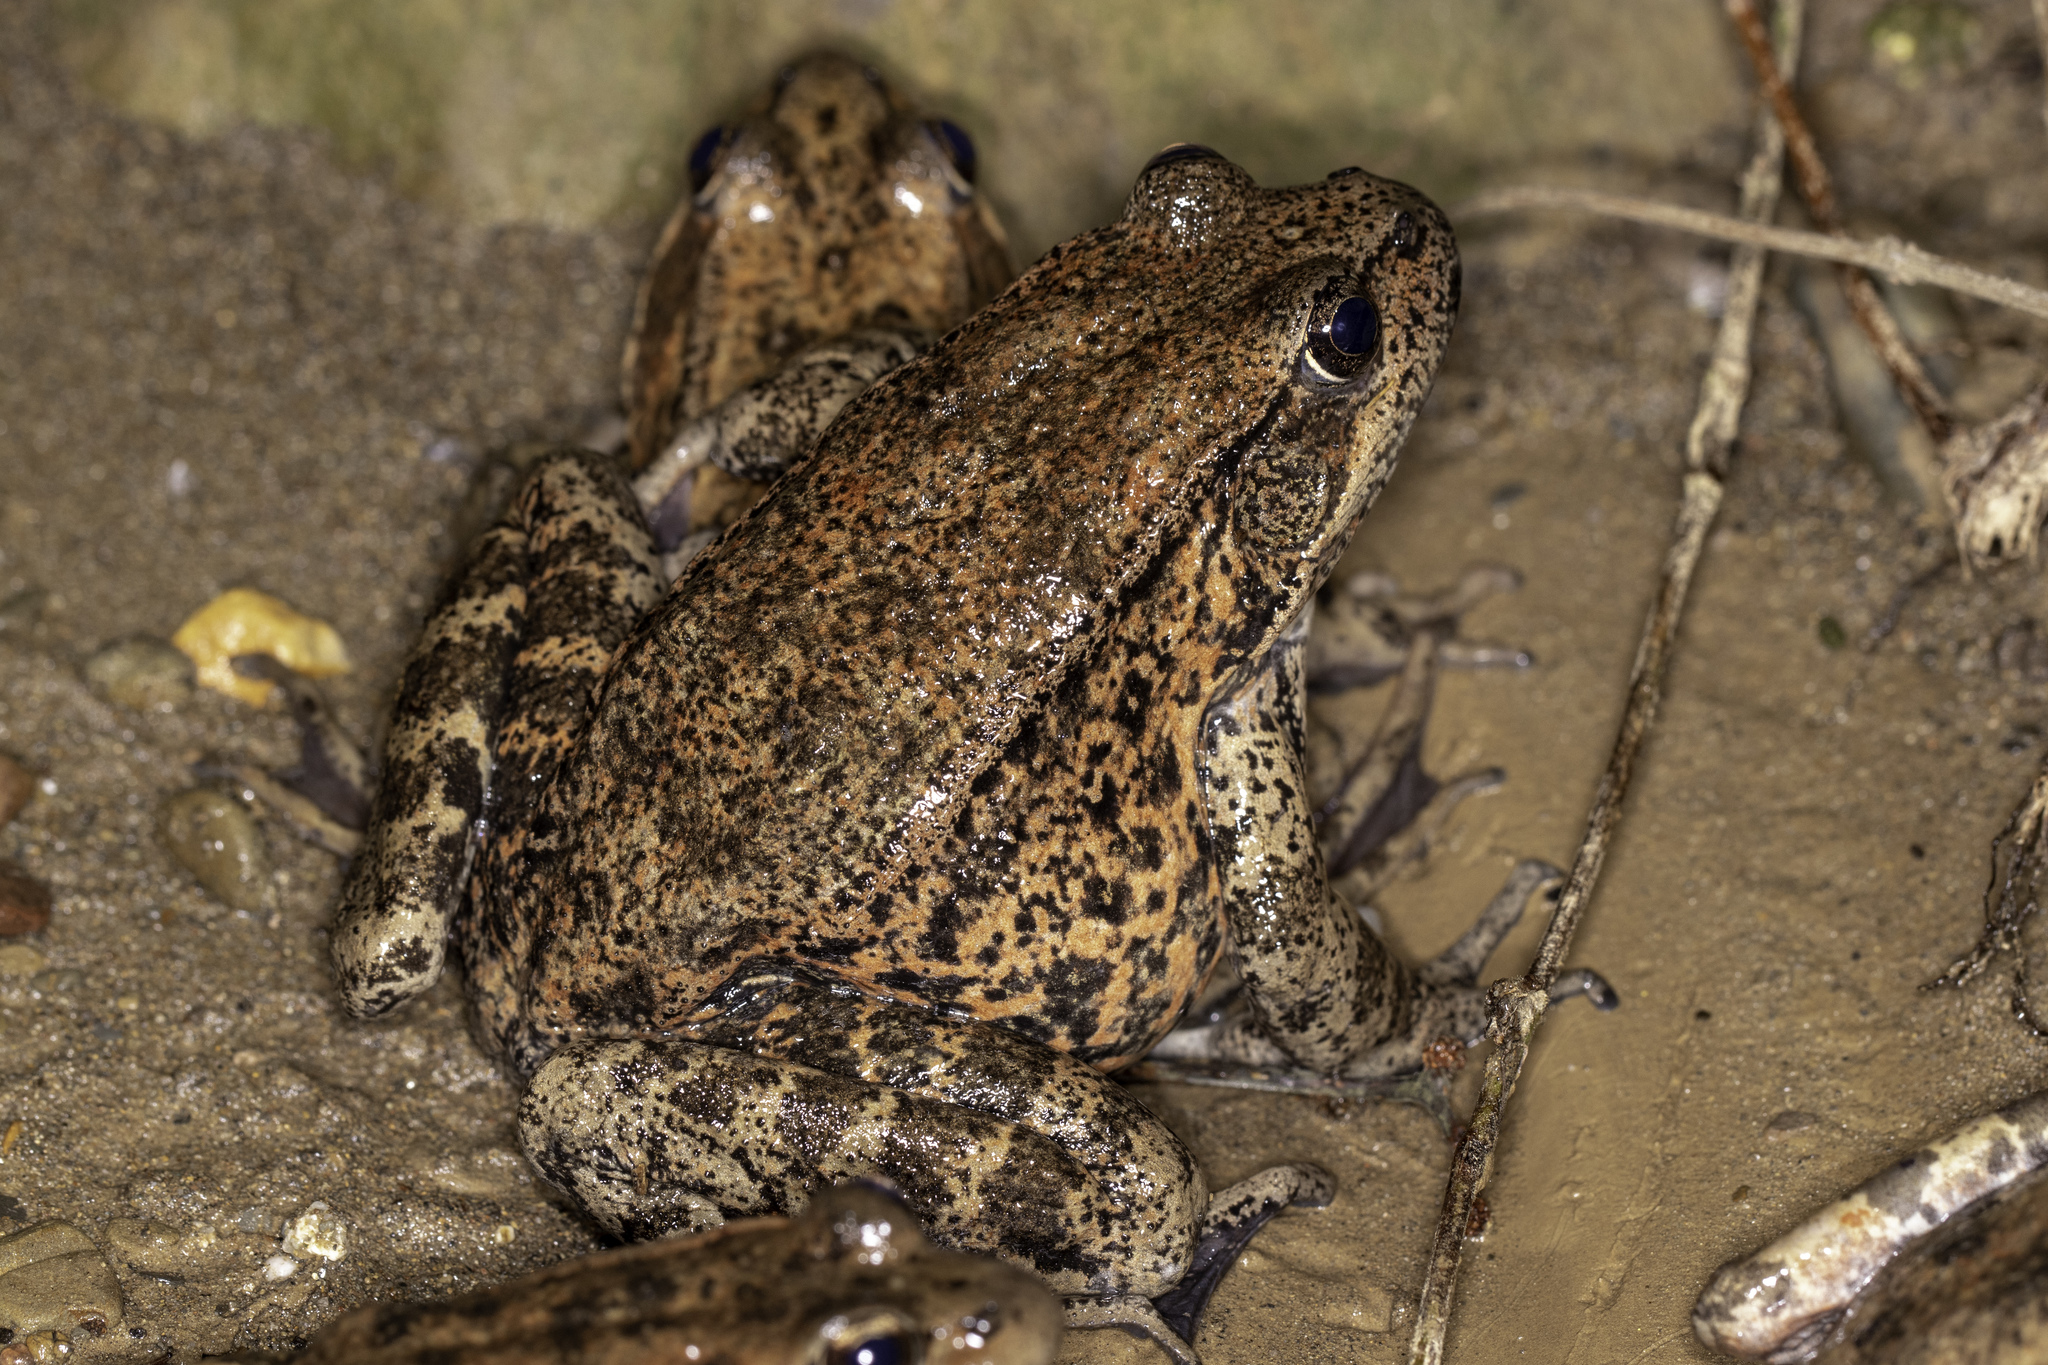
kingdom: Animalia
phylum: Chordata
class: Amphibia
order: Anura
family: Ranidae
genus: Rana
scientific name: Rana draytonii
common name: California red-legged frog
